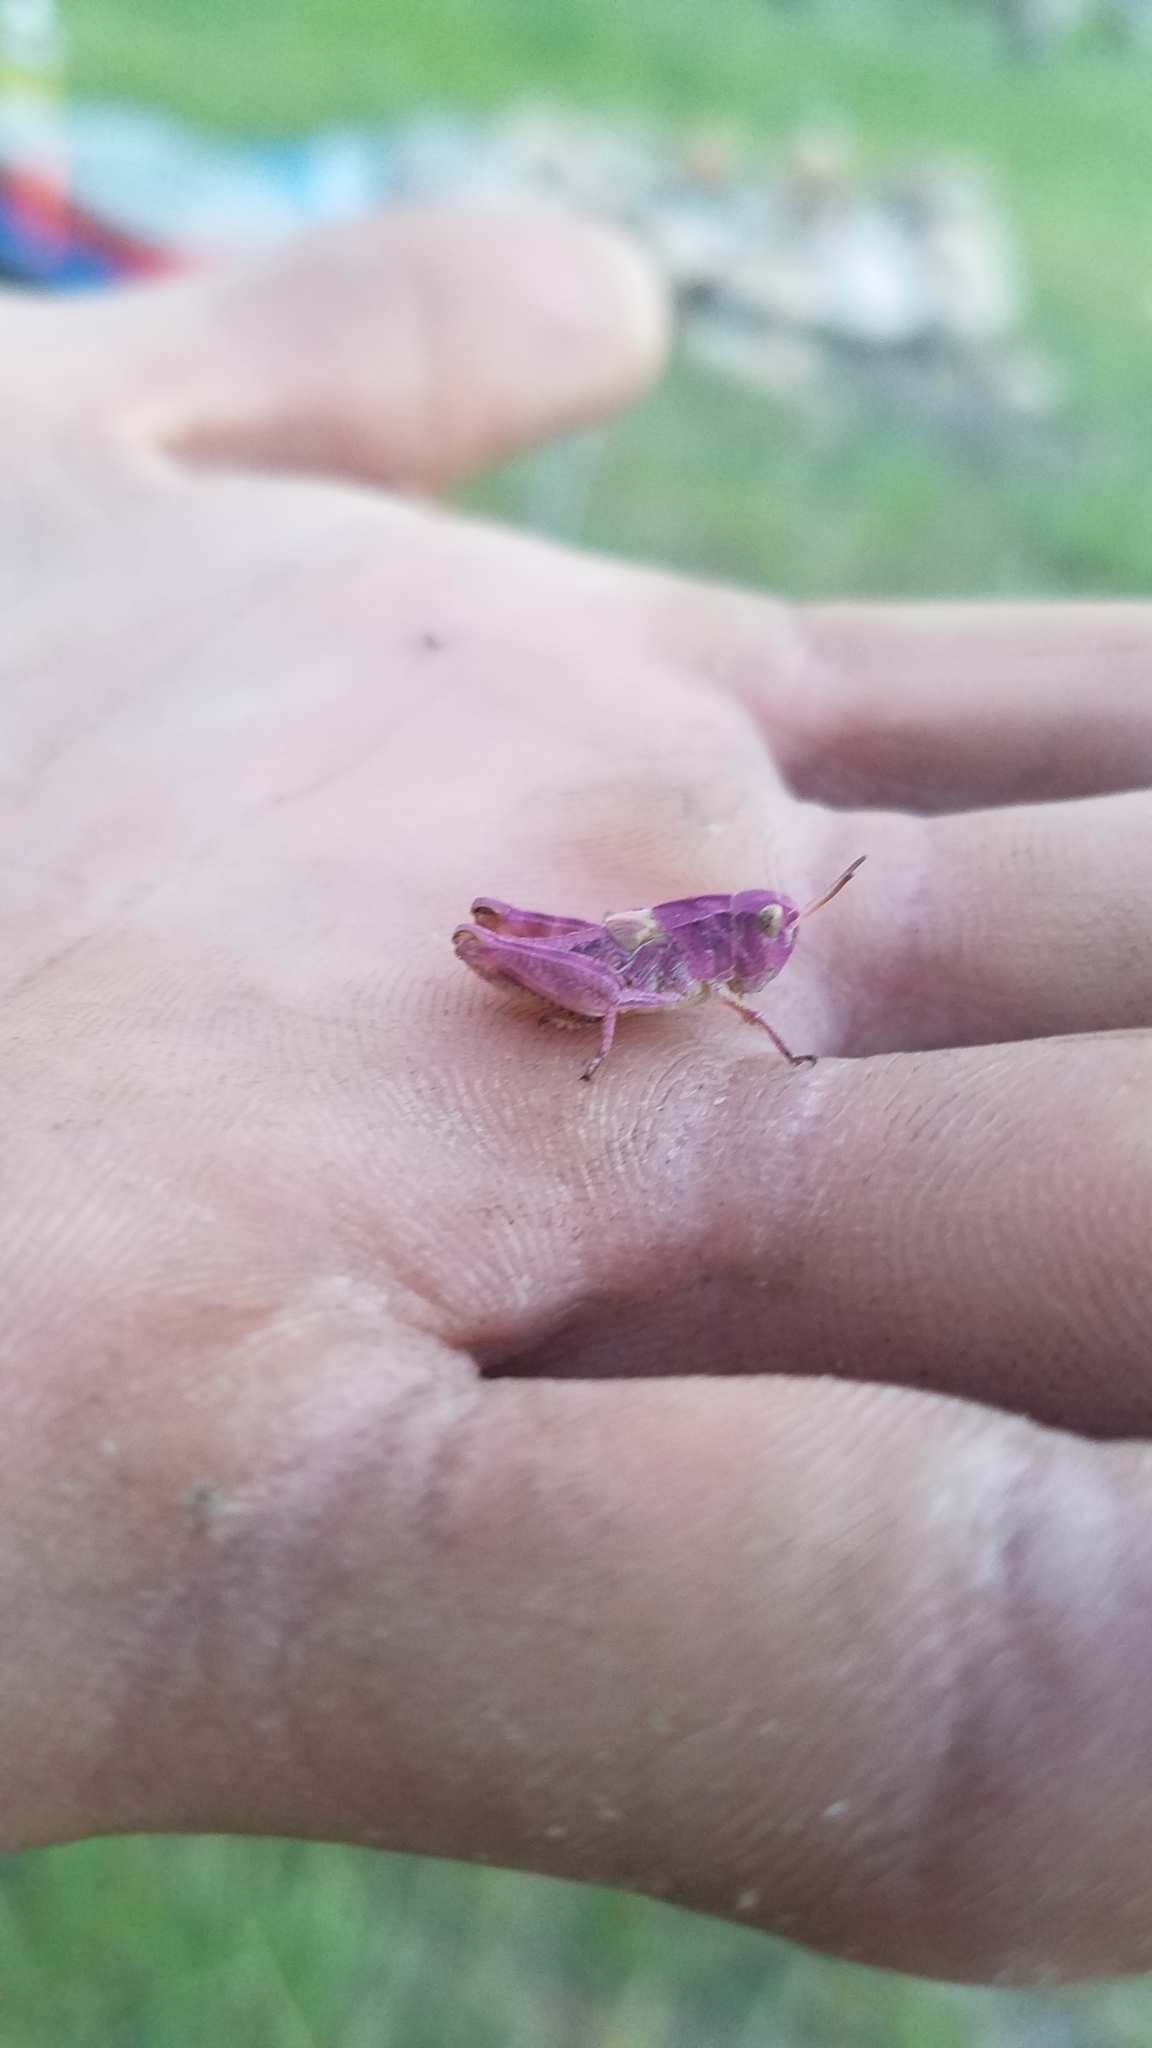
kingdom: Animalia
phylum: Arthropoda
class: Insecta
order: Orthoptera
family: Acrididae
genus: Camnula
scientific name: Camnula pellucida
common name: Clear-winged grasshopper
